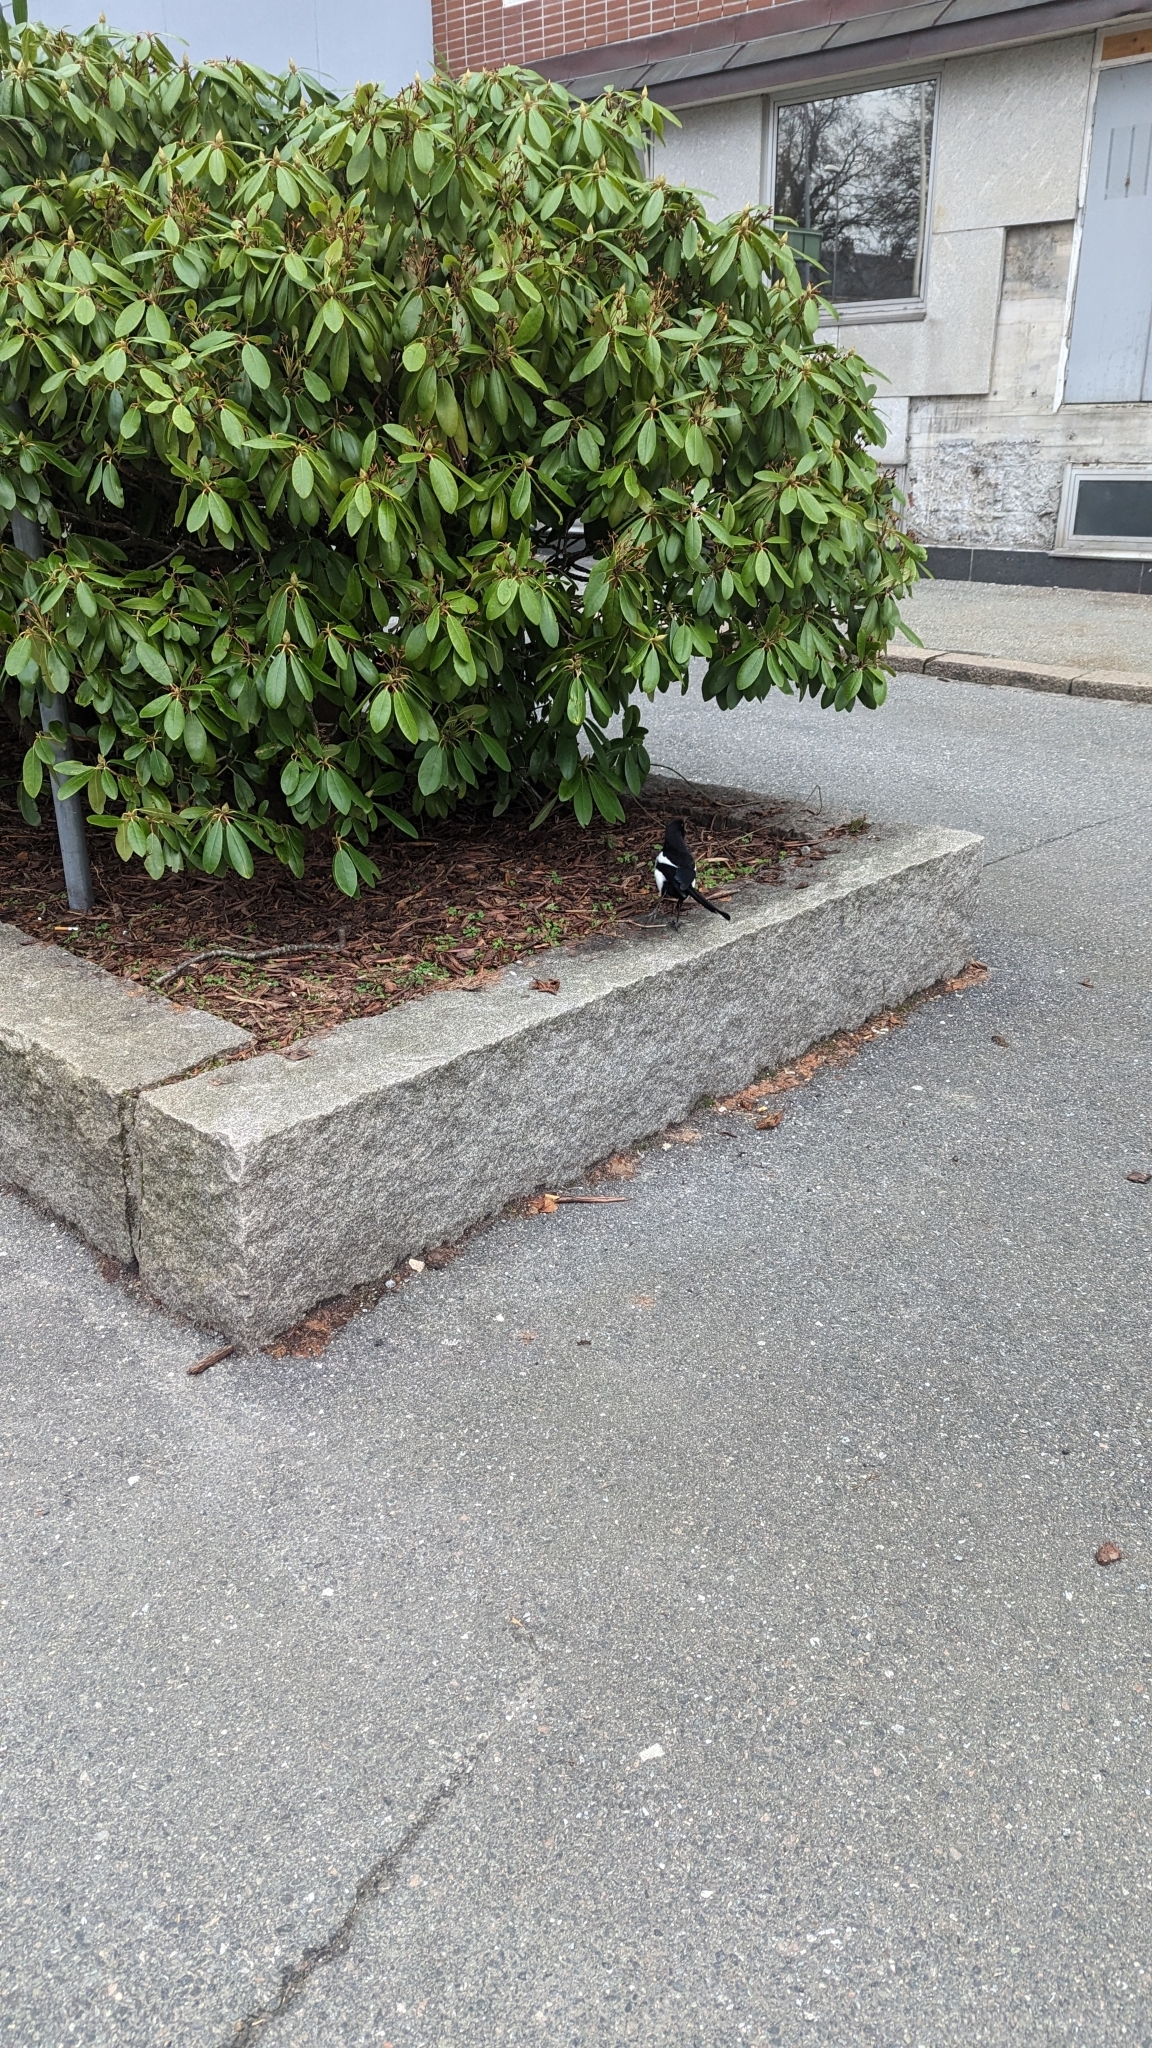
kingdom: Animalia
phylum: Chordata
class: Aves
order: Passeriformes
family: Corvidae
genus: Pica
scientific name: Pica pica
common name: Eurasian magpie
